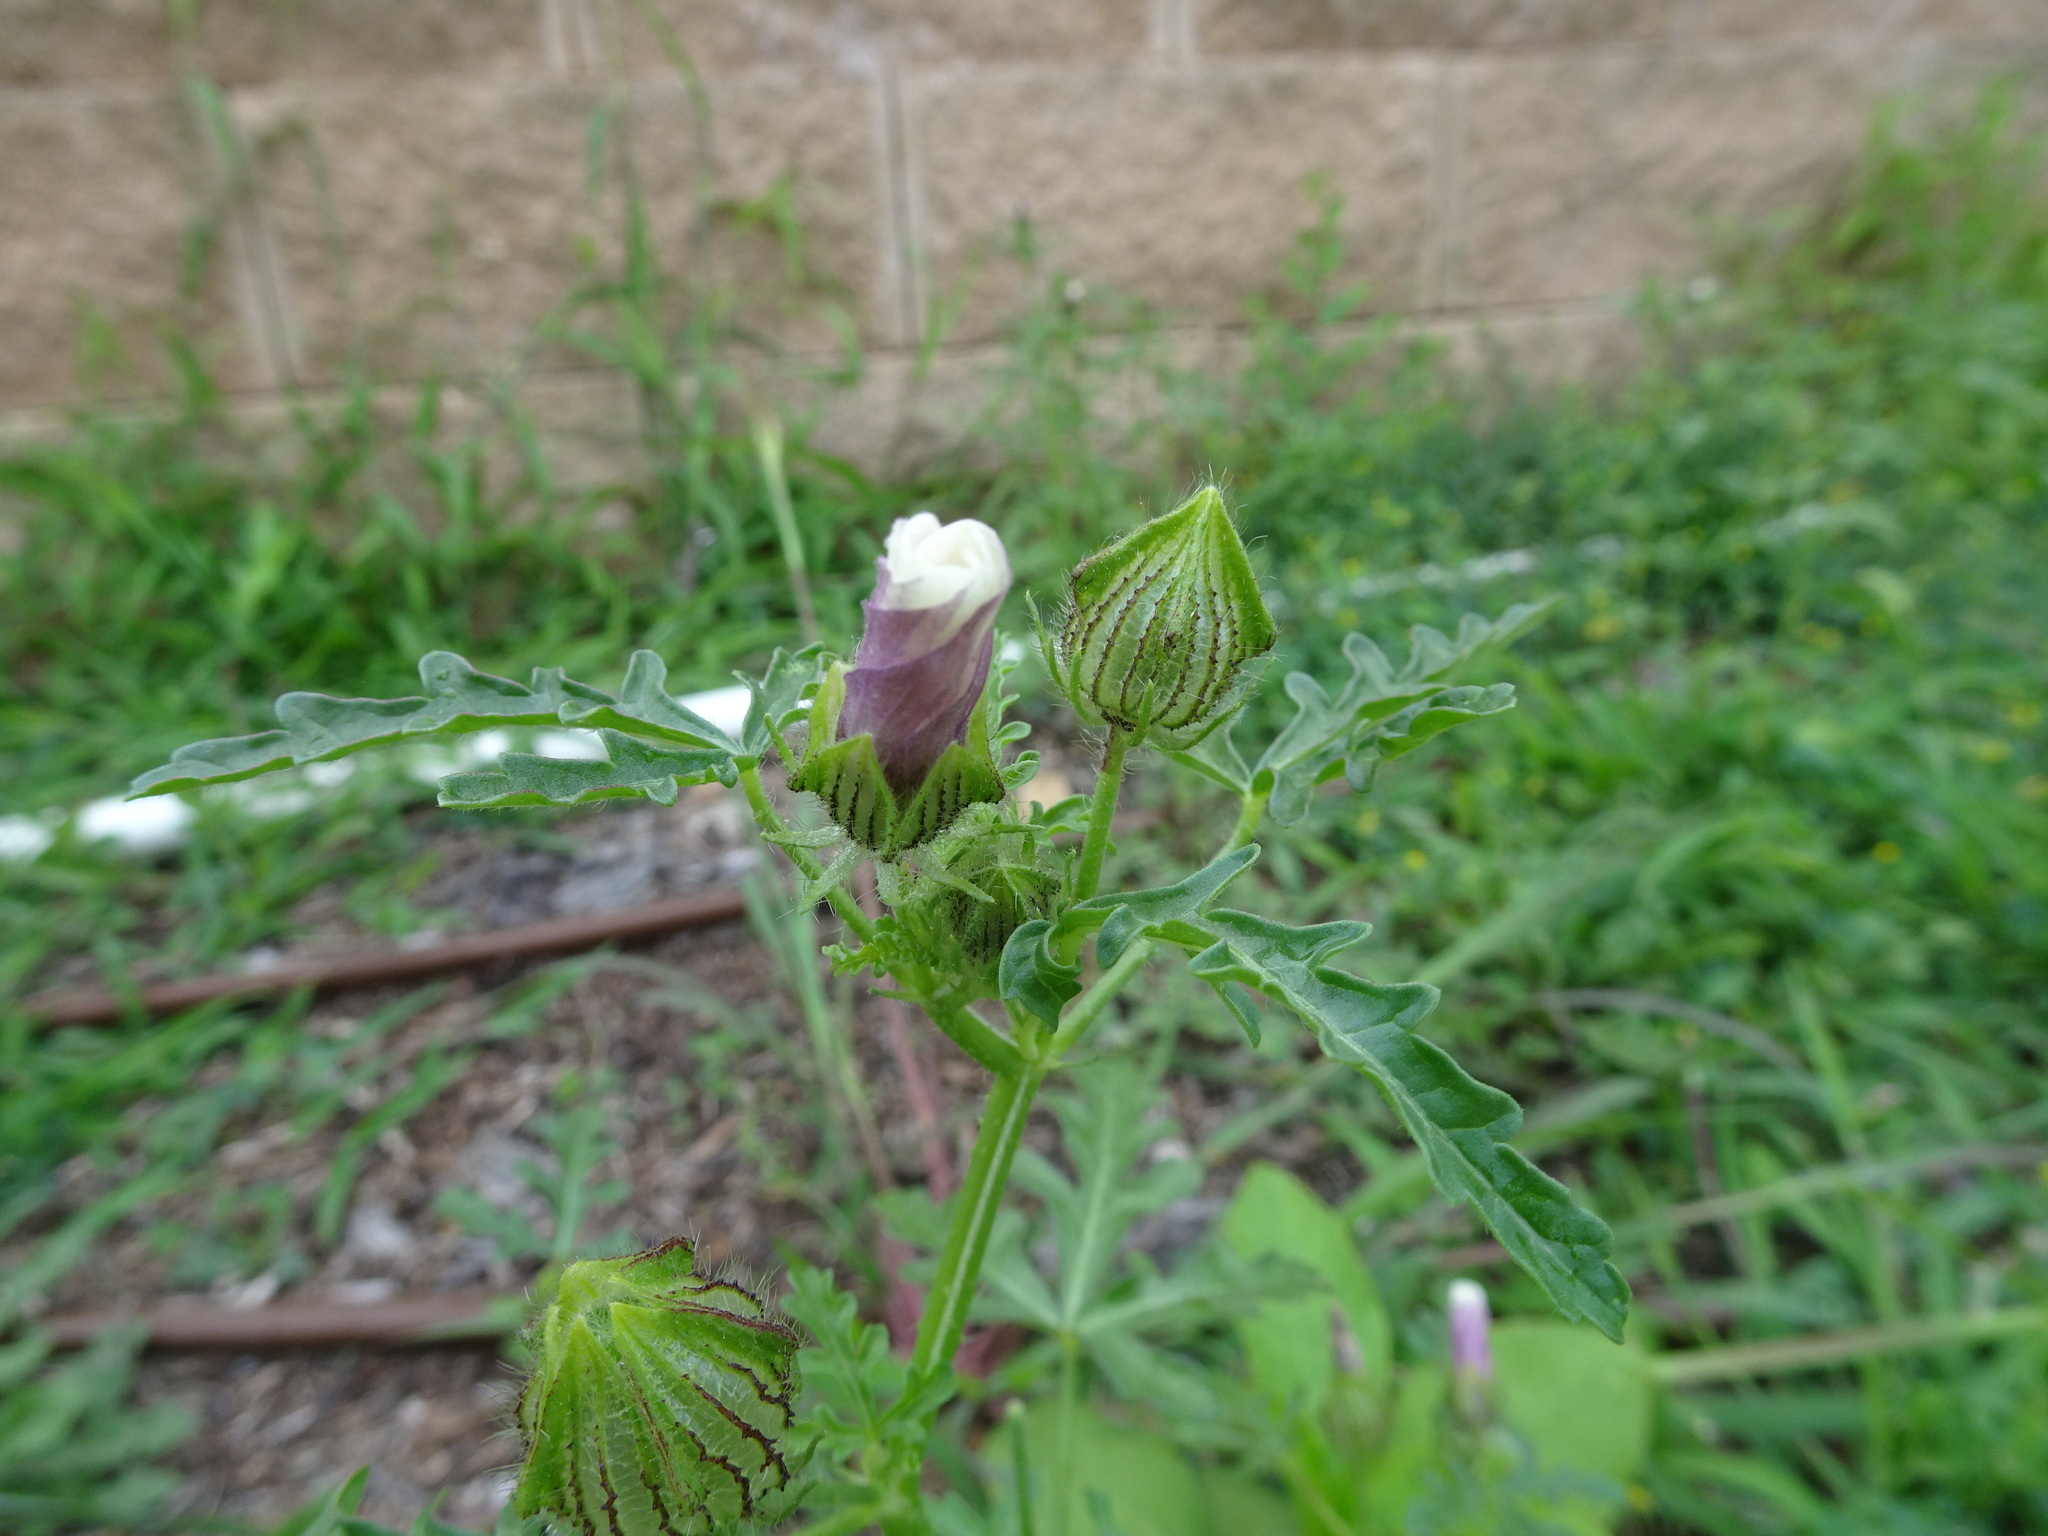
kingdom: Plantae
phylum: Tracheophyta
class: Magnoliopsida
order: Malvales
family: Malvaceae
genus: Hibiscus
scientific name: Hibiscus trionum
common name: Bladder ketmia
